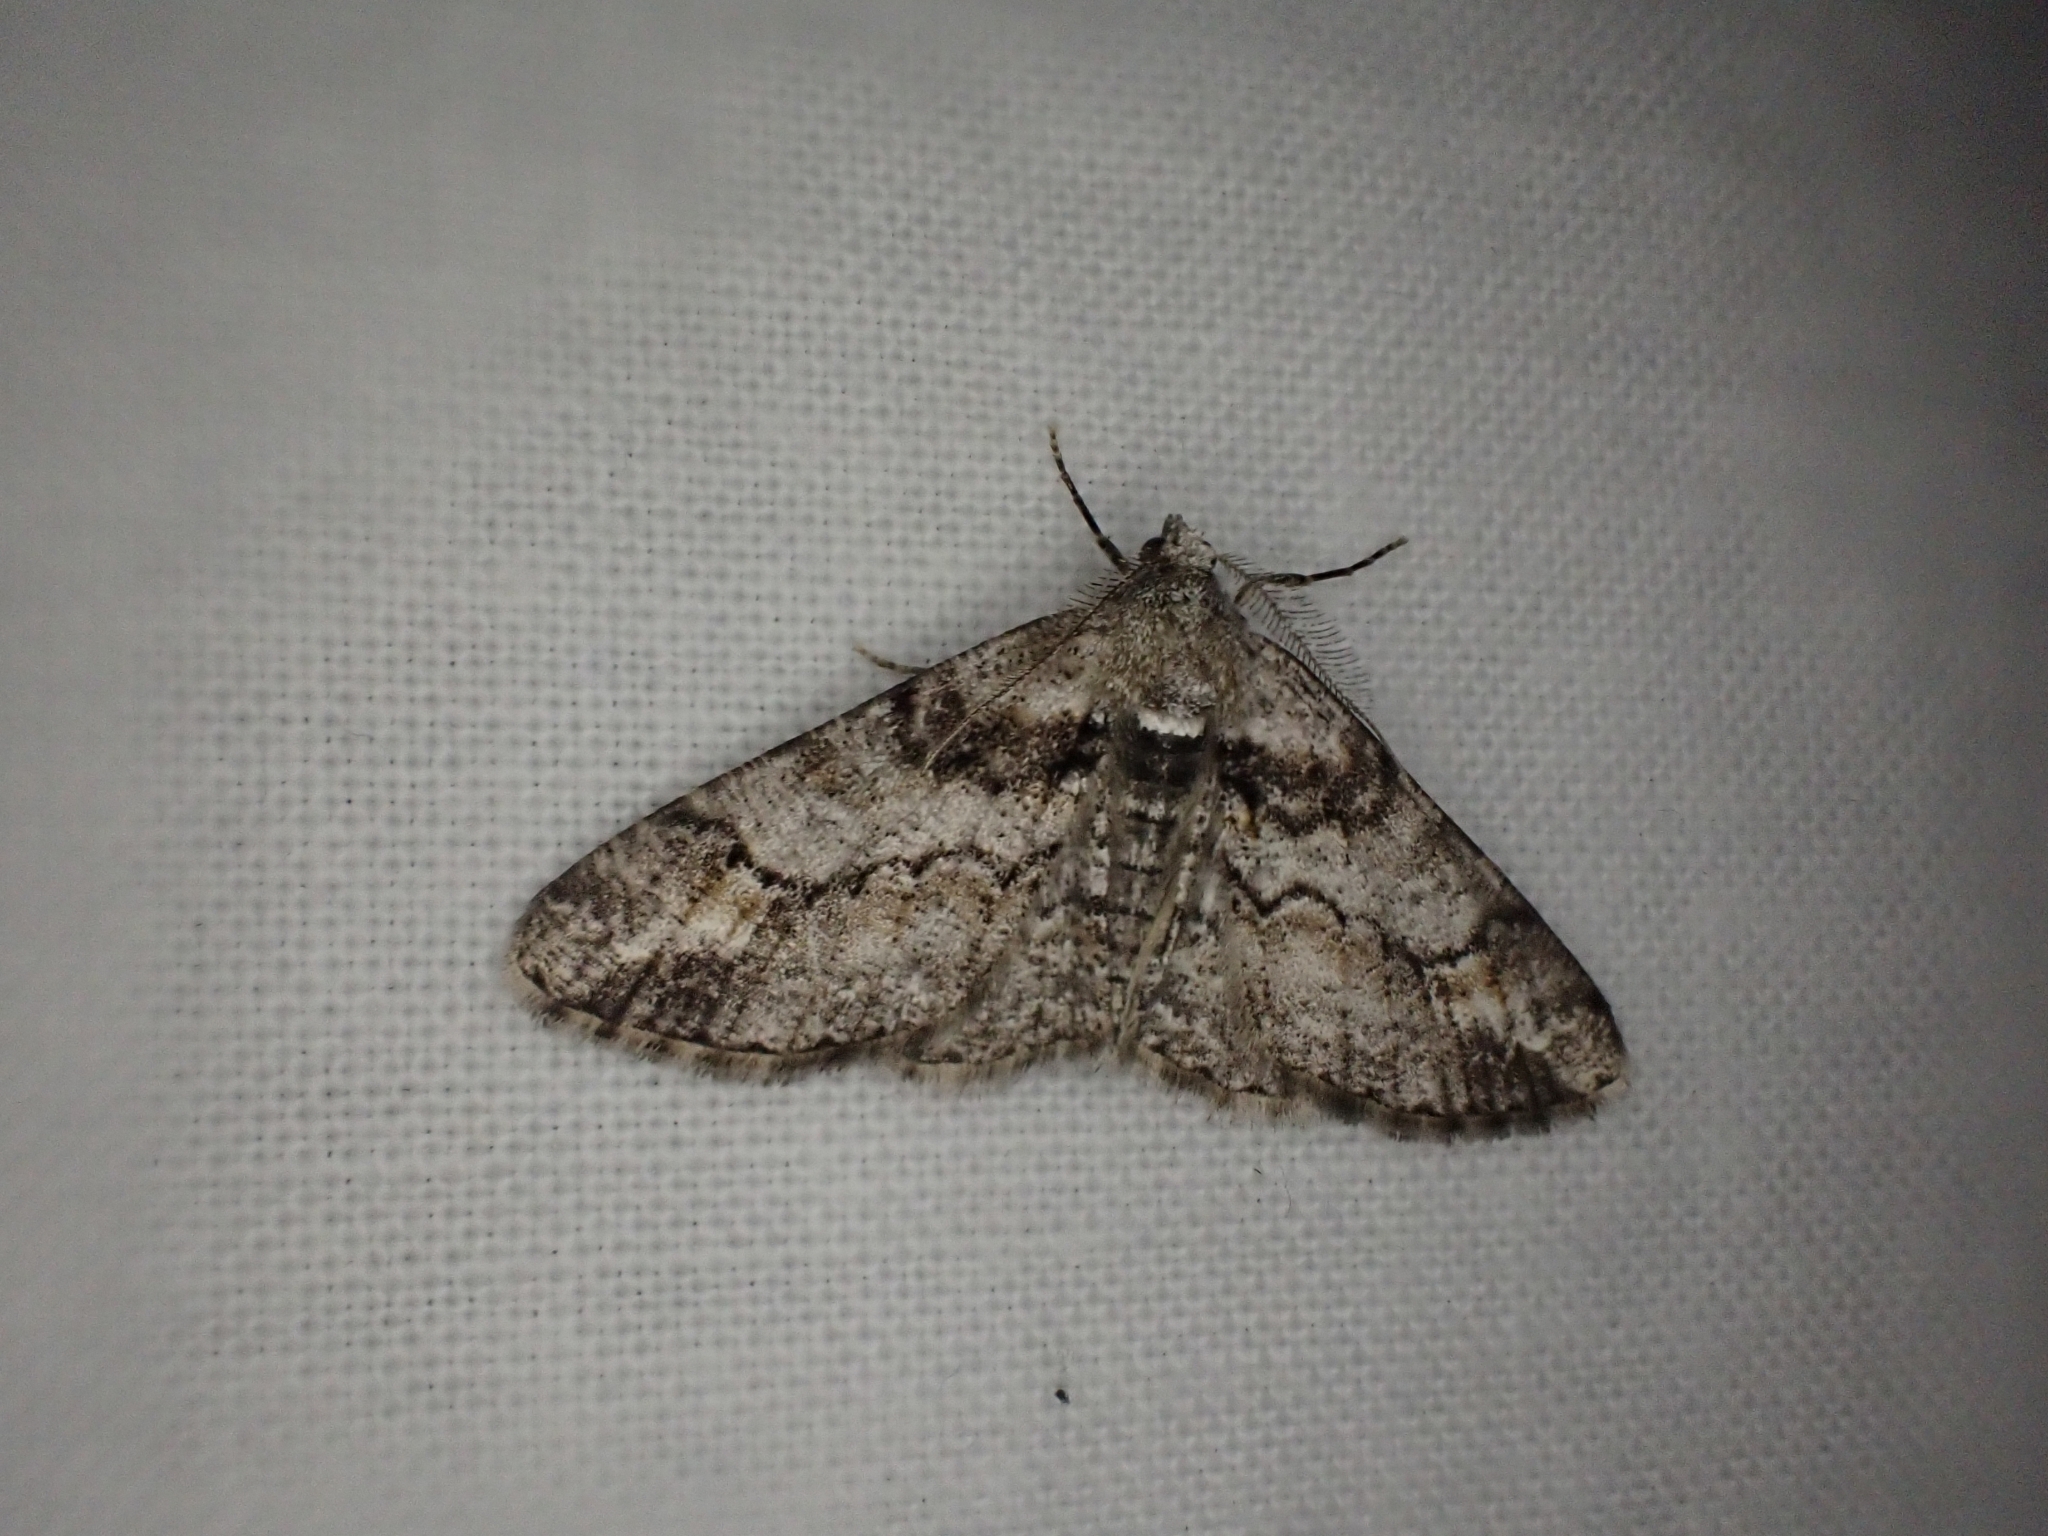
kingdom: Animalia
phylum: Arthropoda
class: Insecta
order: Lepidoptera
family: Geometridae
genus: Cleora
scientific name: Cleora cinctaria
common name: Ringed carpet
